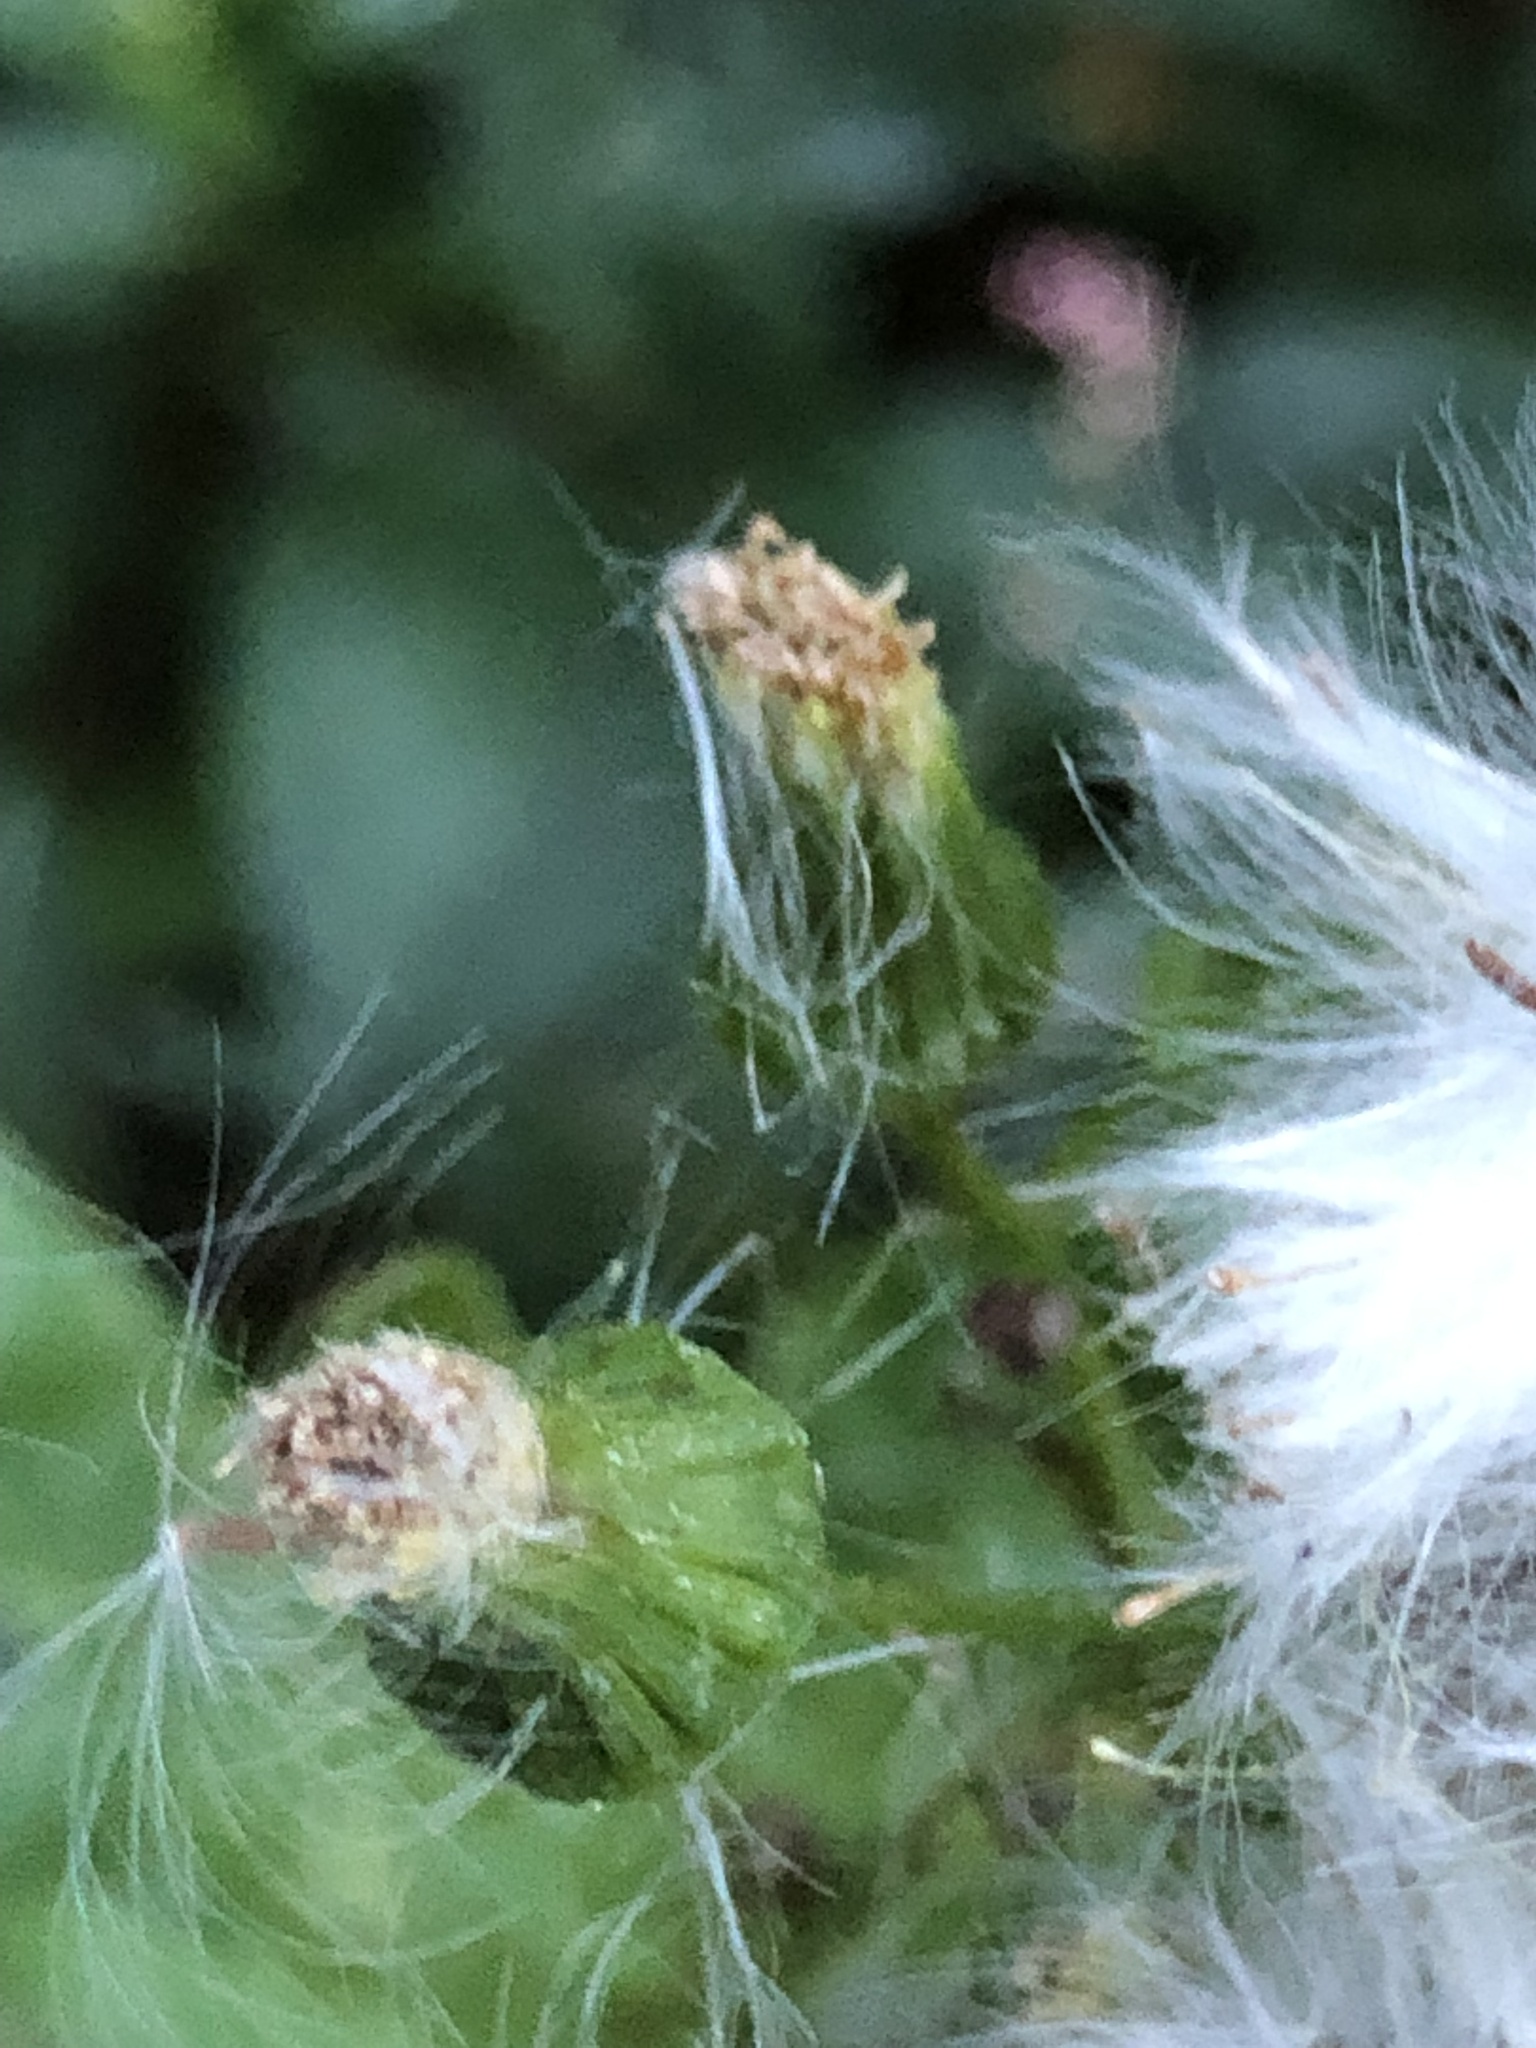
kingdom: Plantae
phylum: Tracheophyta
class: Magnoliopsida
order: Asterales
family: Asteraceae
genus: Erechtites
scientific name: Erechtites hieraciifolius
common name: American burnweed
